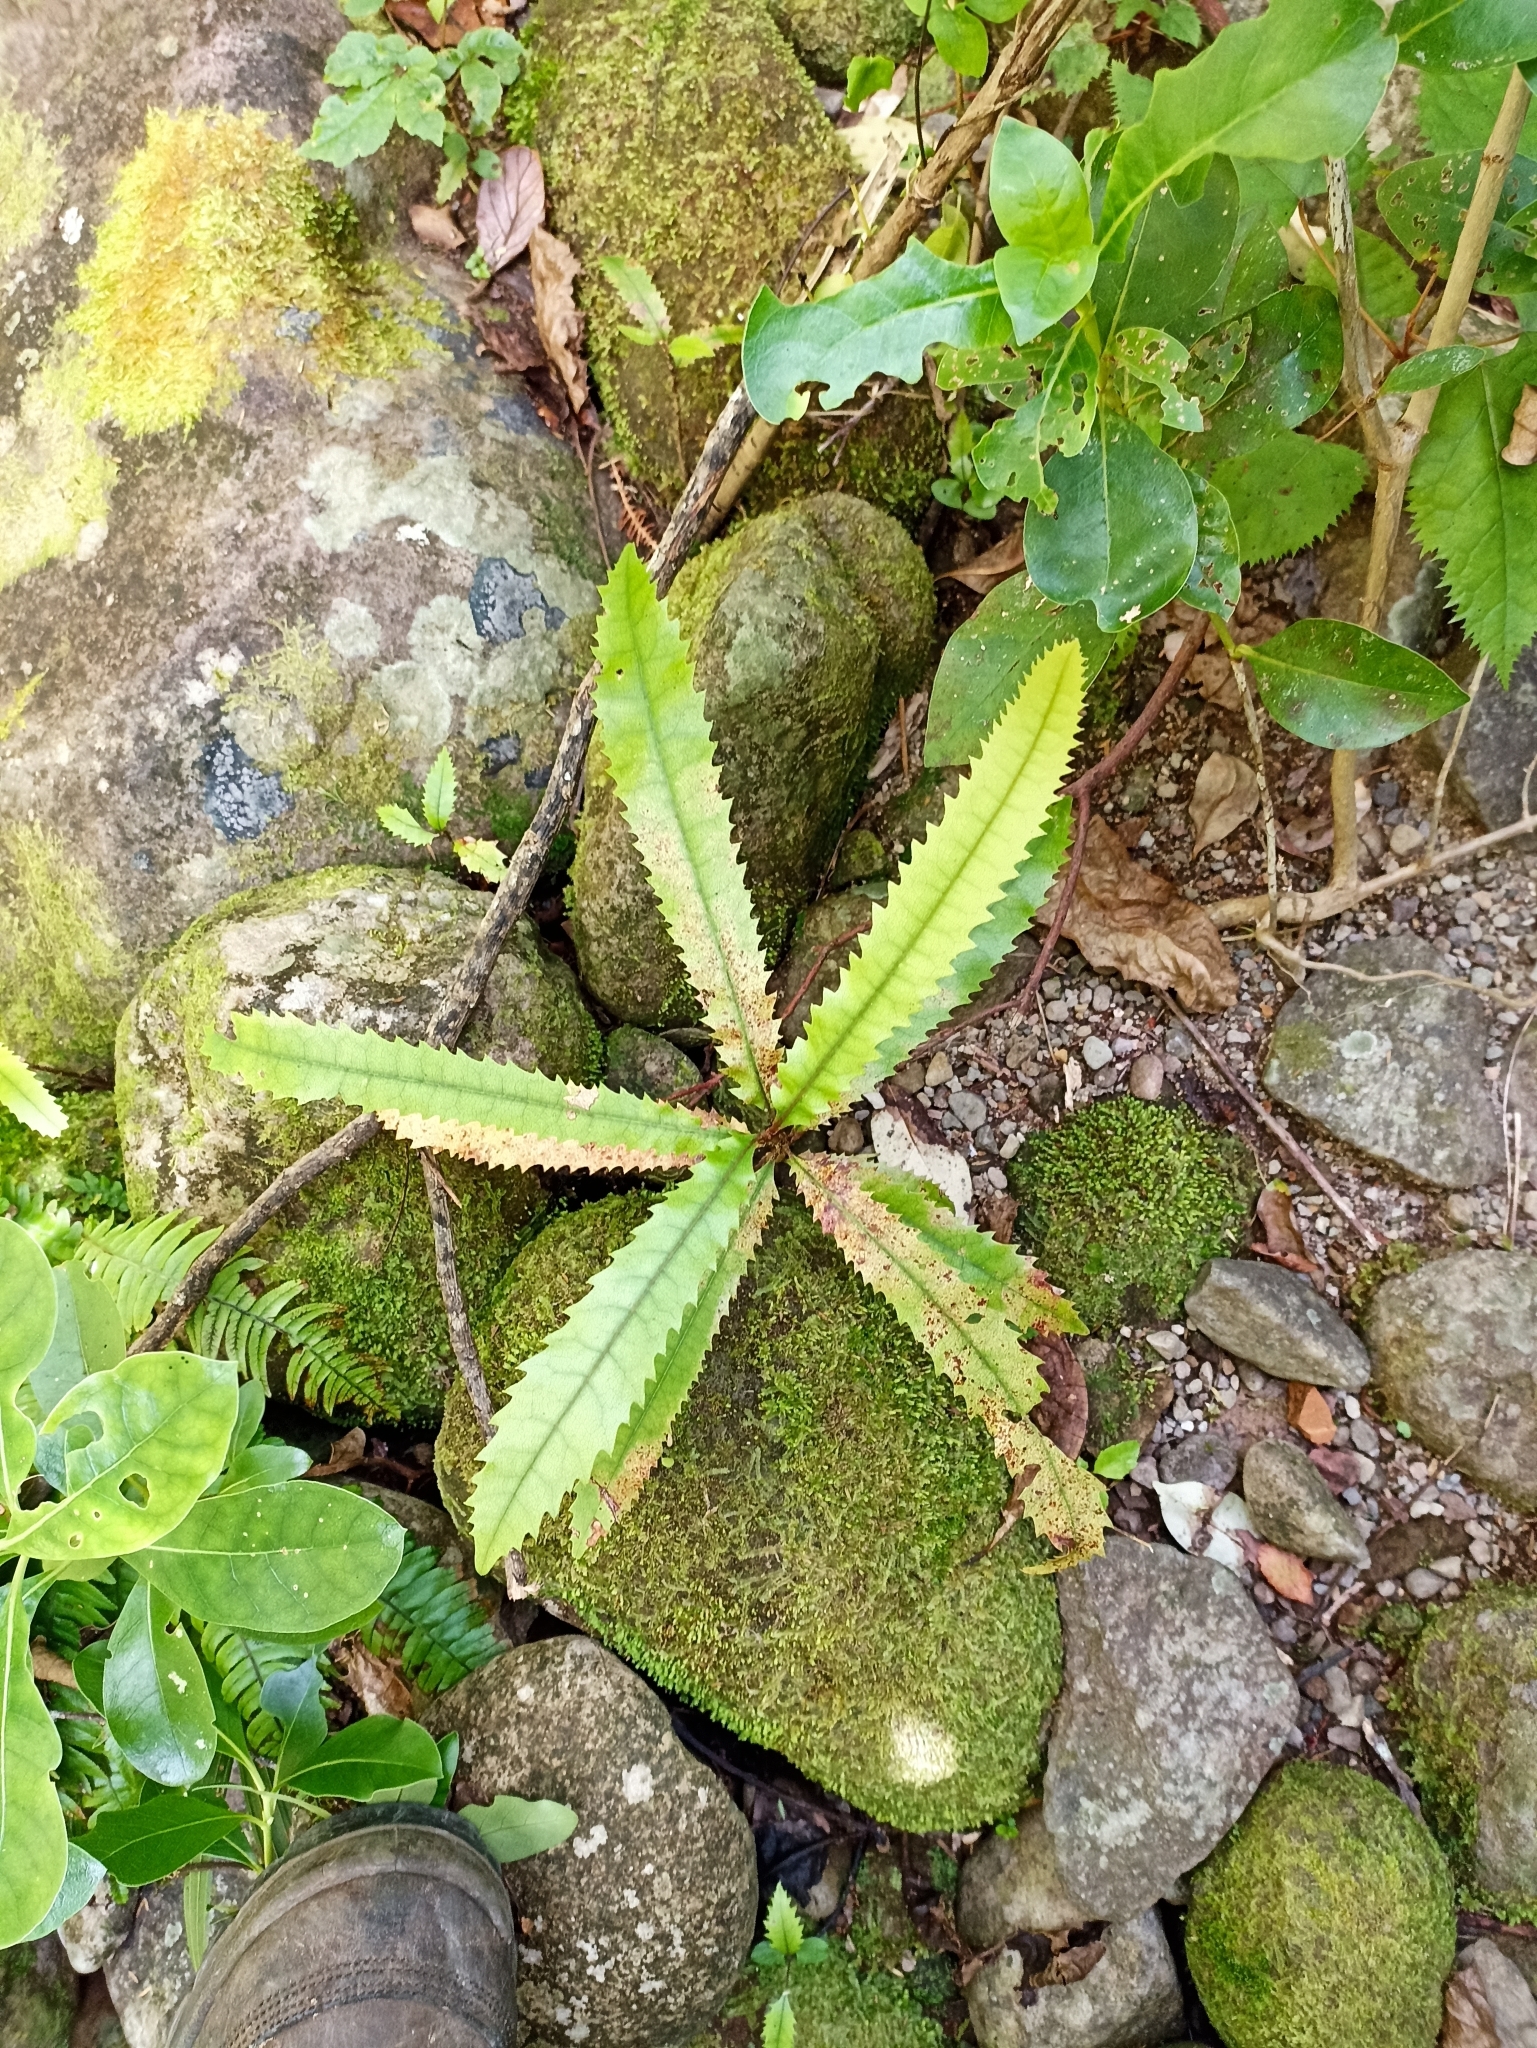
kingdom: Plantae
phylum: Tracheophyta
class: Magnoliopsida
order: Proteales
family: Proteaceae
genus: Knightia
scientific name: Knightia excelsa
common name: New zealand-honeysuckle
